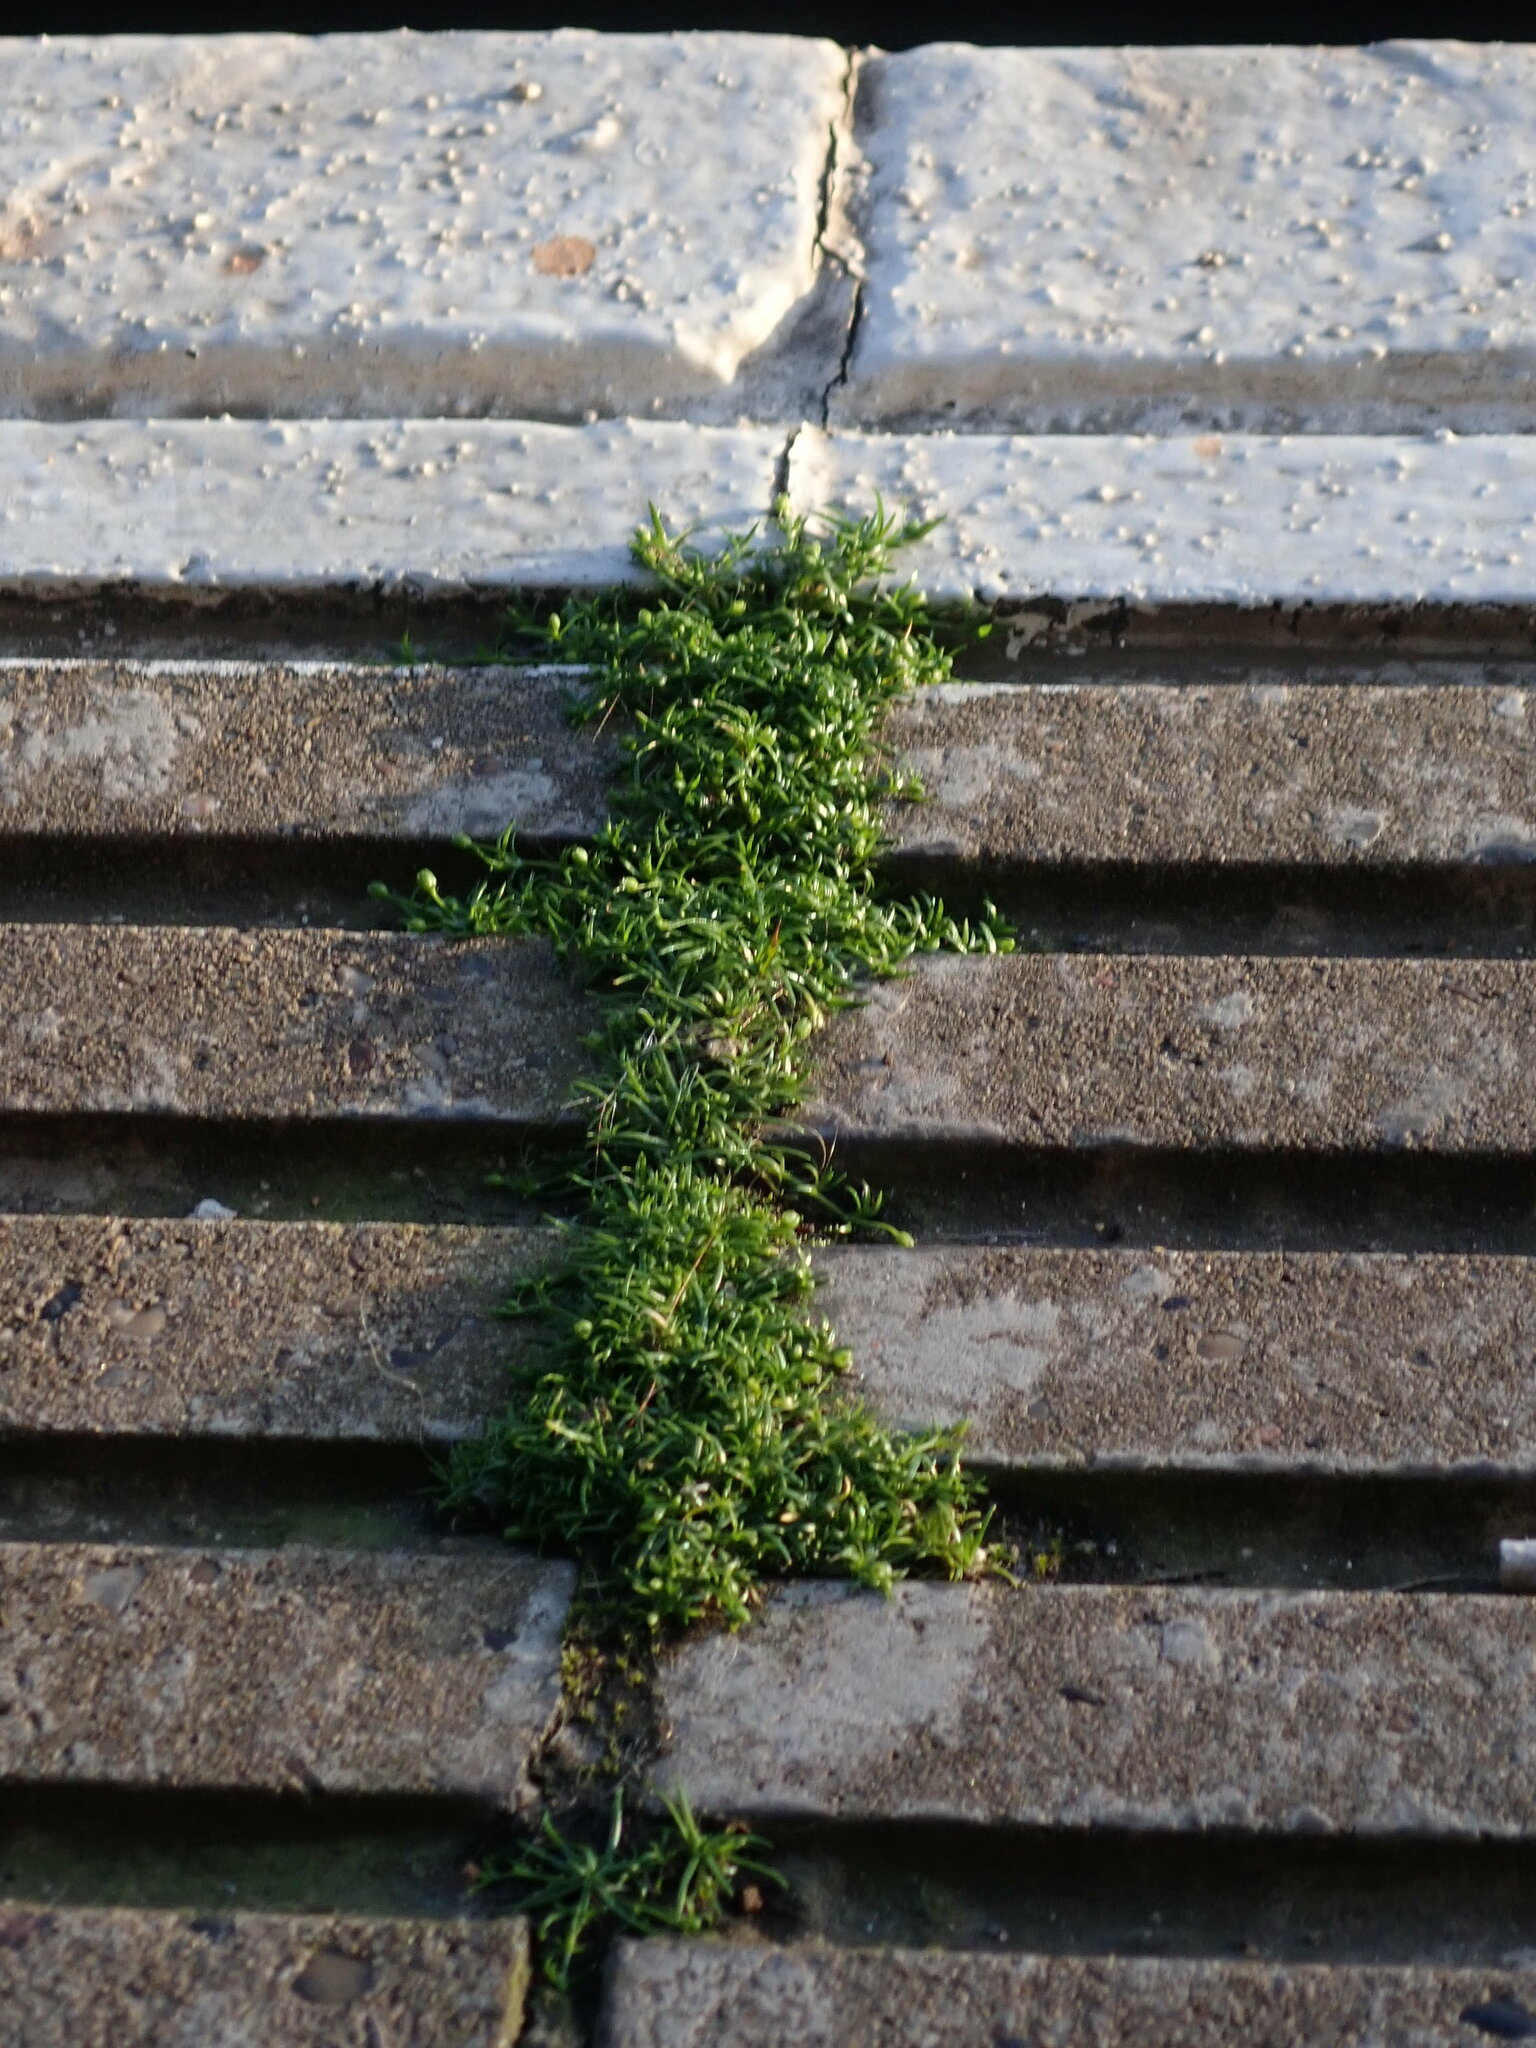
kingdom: Plantae
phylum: Tracheophyta
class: Magnoliopsida
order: Caryophyllales
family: Caryophyllaceae
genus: Sagina
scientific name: Sagina procumbens
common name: Procumbent pearlwort
